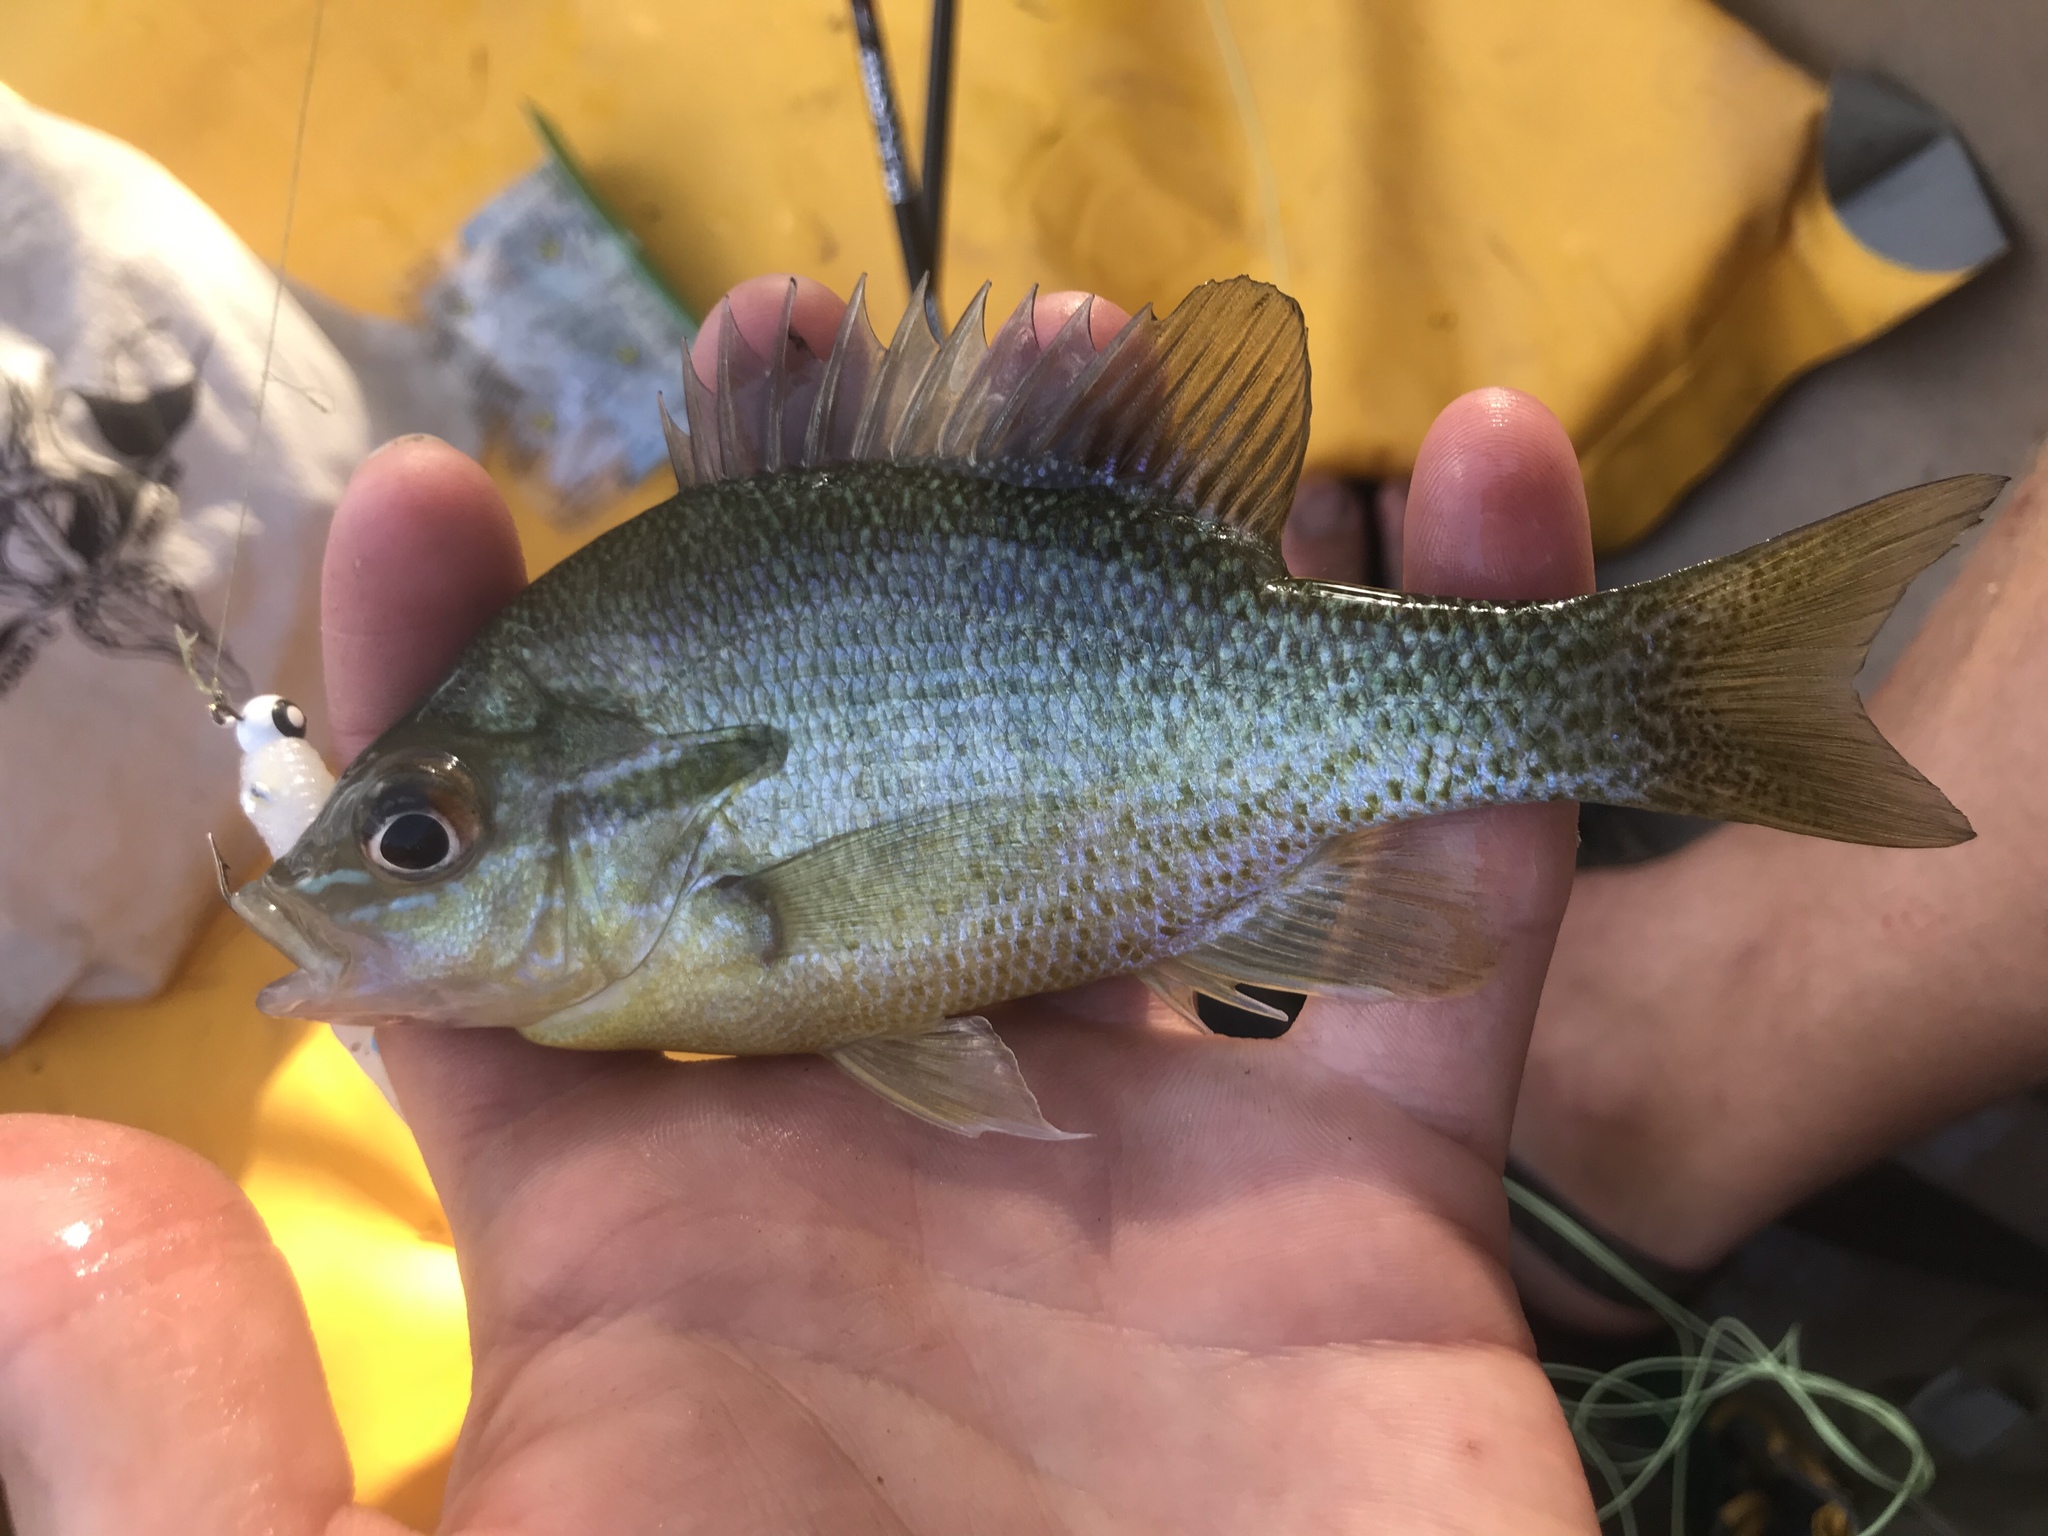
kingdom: Animalia
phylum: Chordata
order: Perciformes
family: Centrarchidae
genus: Lepomis
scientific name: Lepomis auritus
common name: Redbreast sunfish
